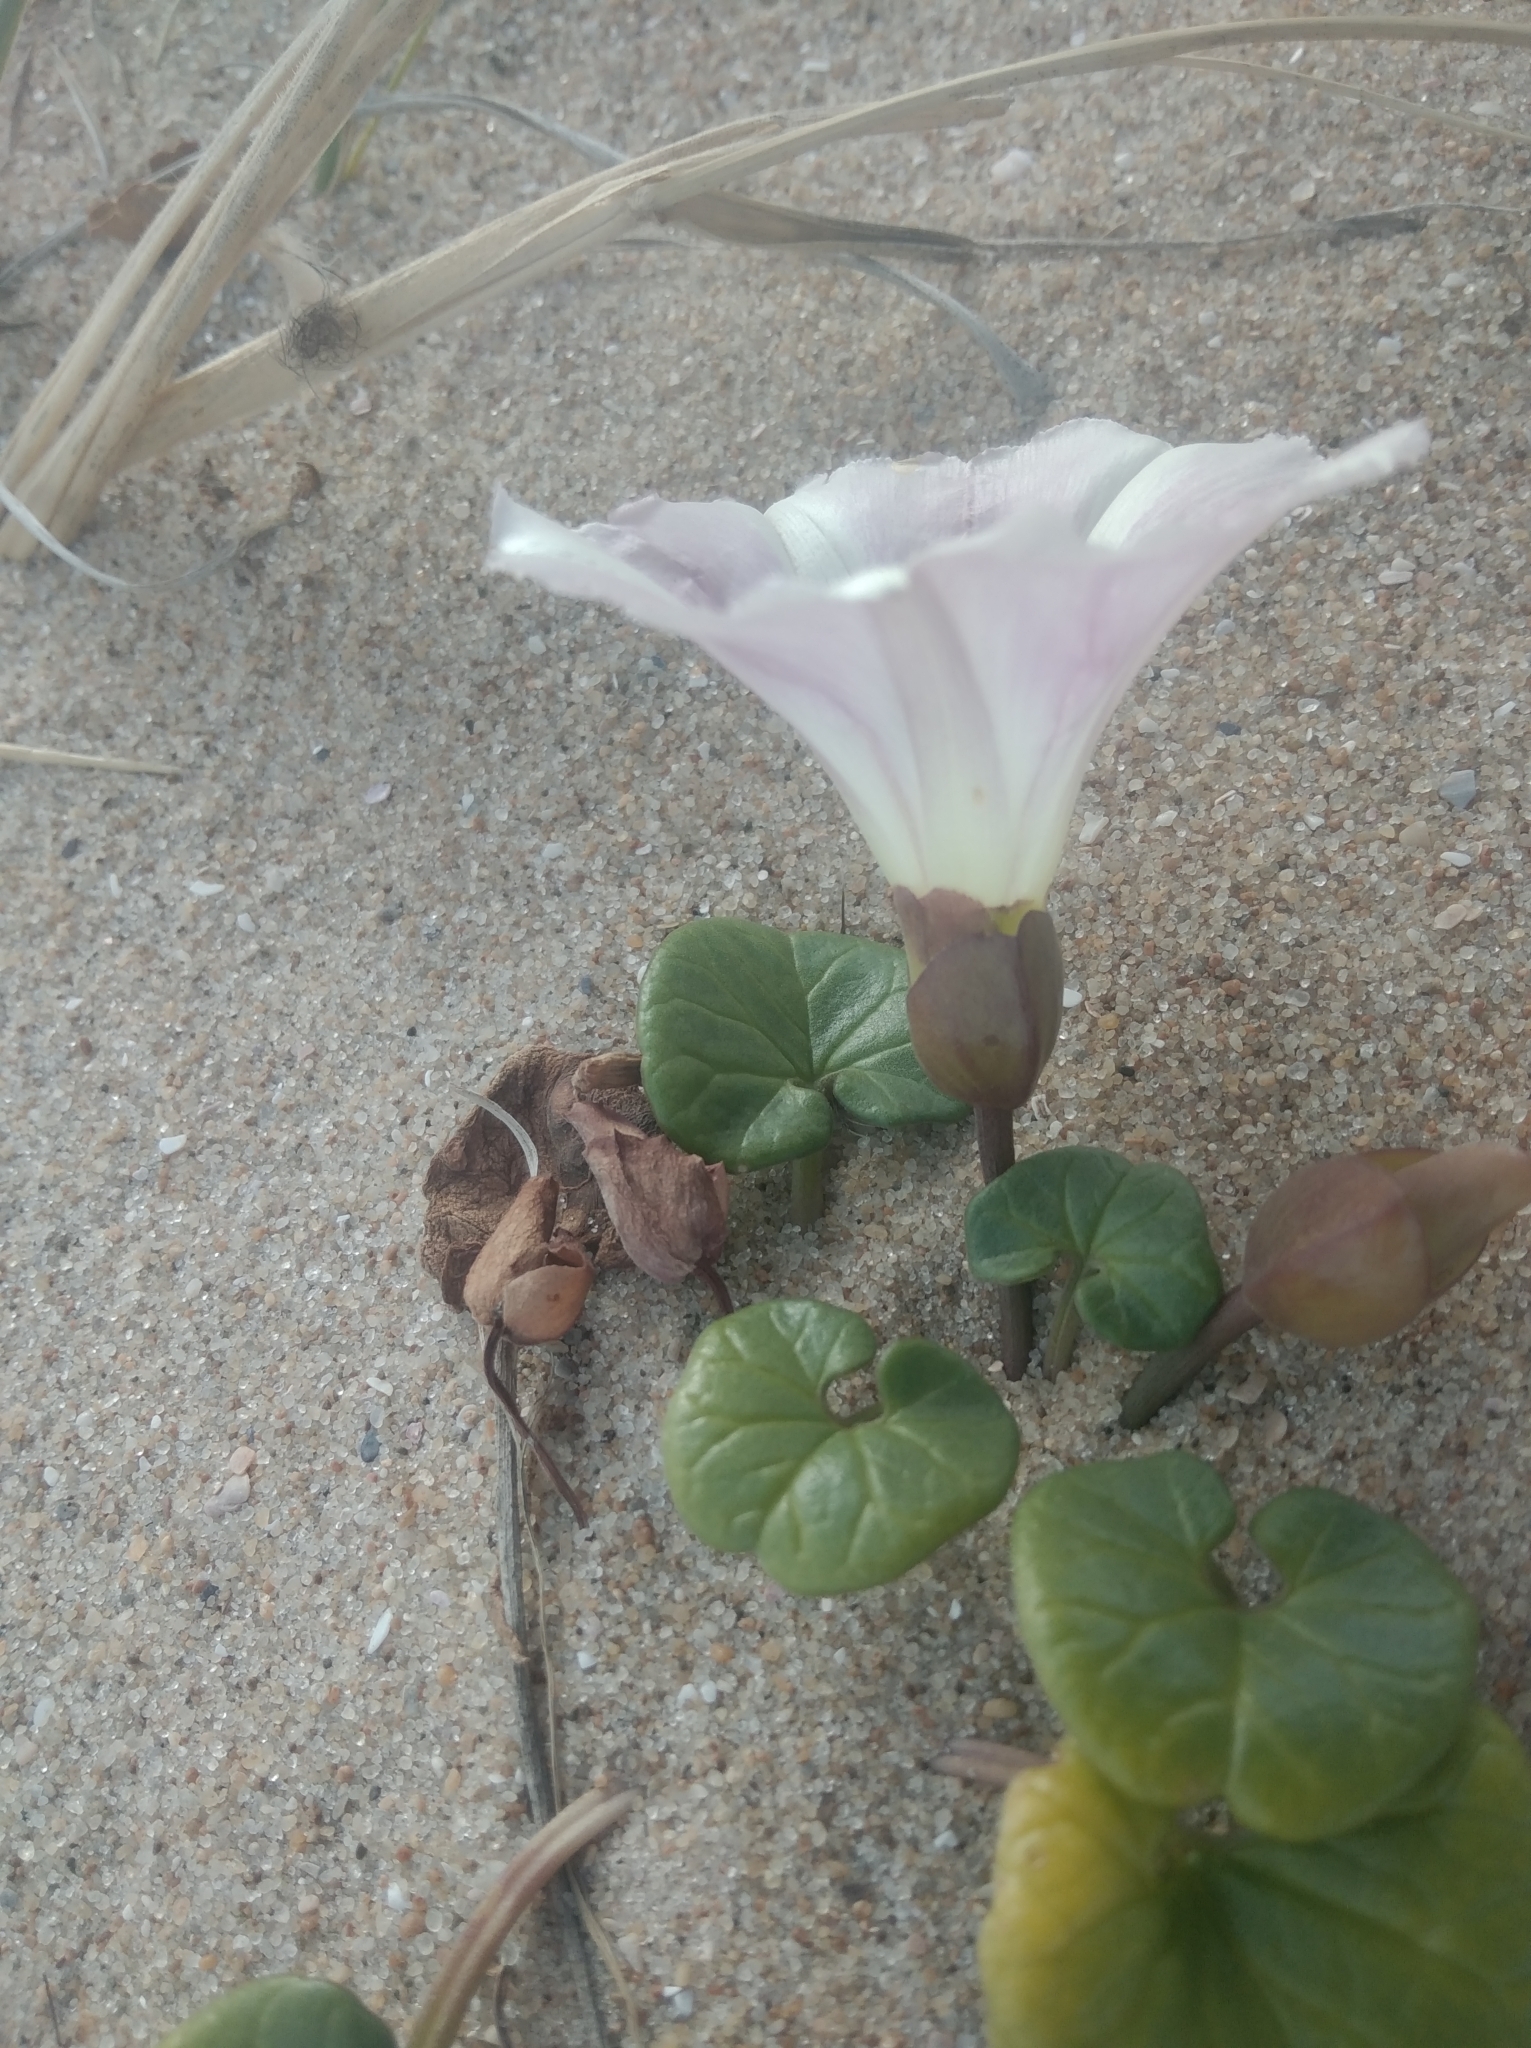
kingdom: Plantae
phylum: Tracheophyta
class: Magnoliopsida
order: Solanales
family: Convolvulaceae
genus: Calystegia
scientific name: Calystegia soldanella
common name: Sea bindweed
